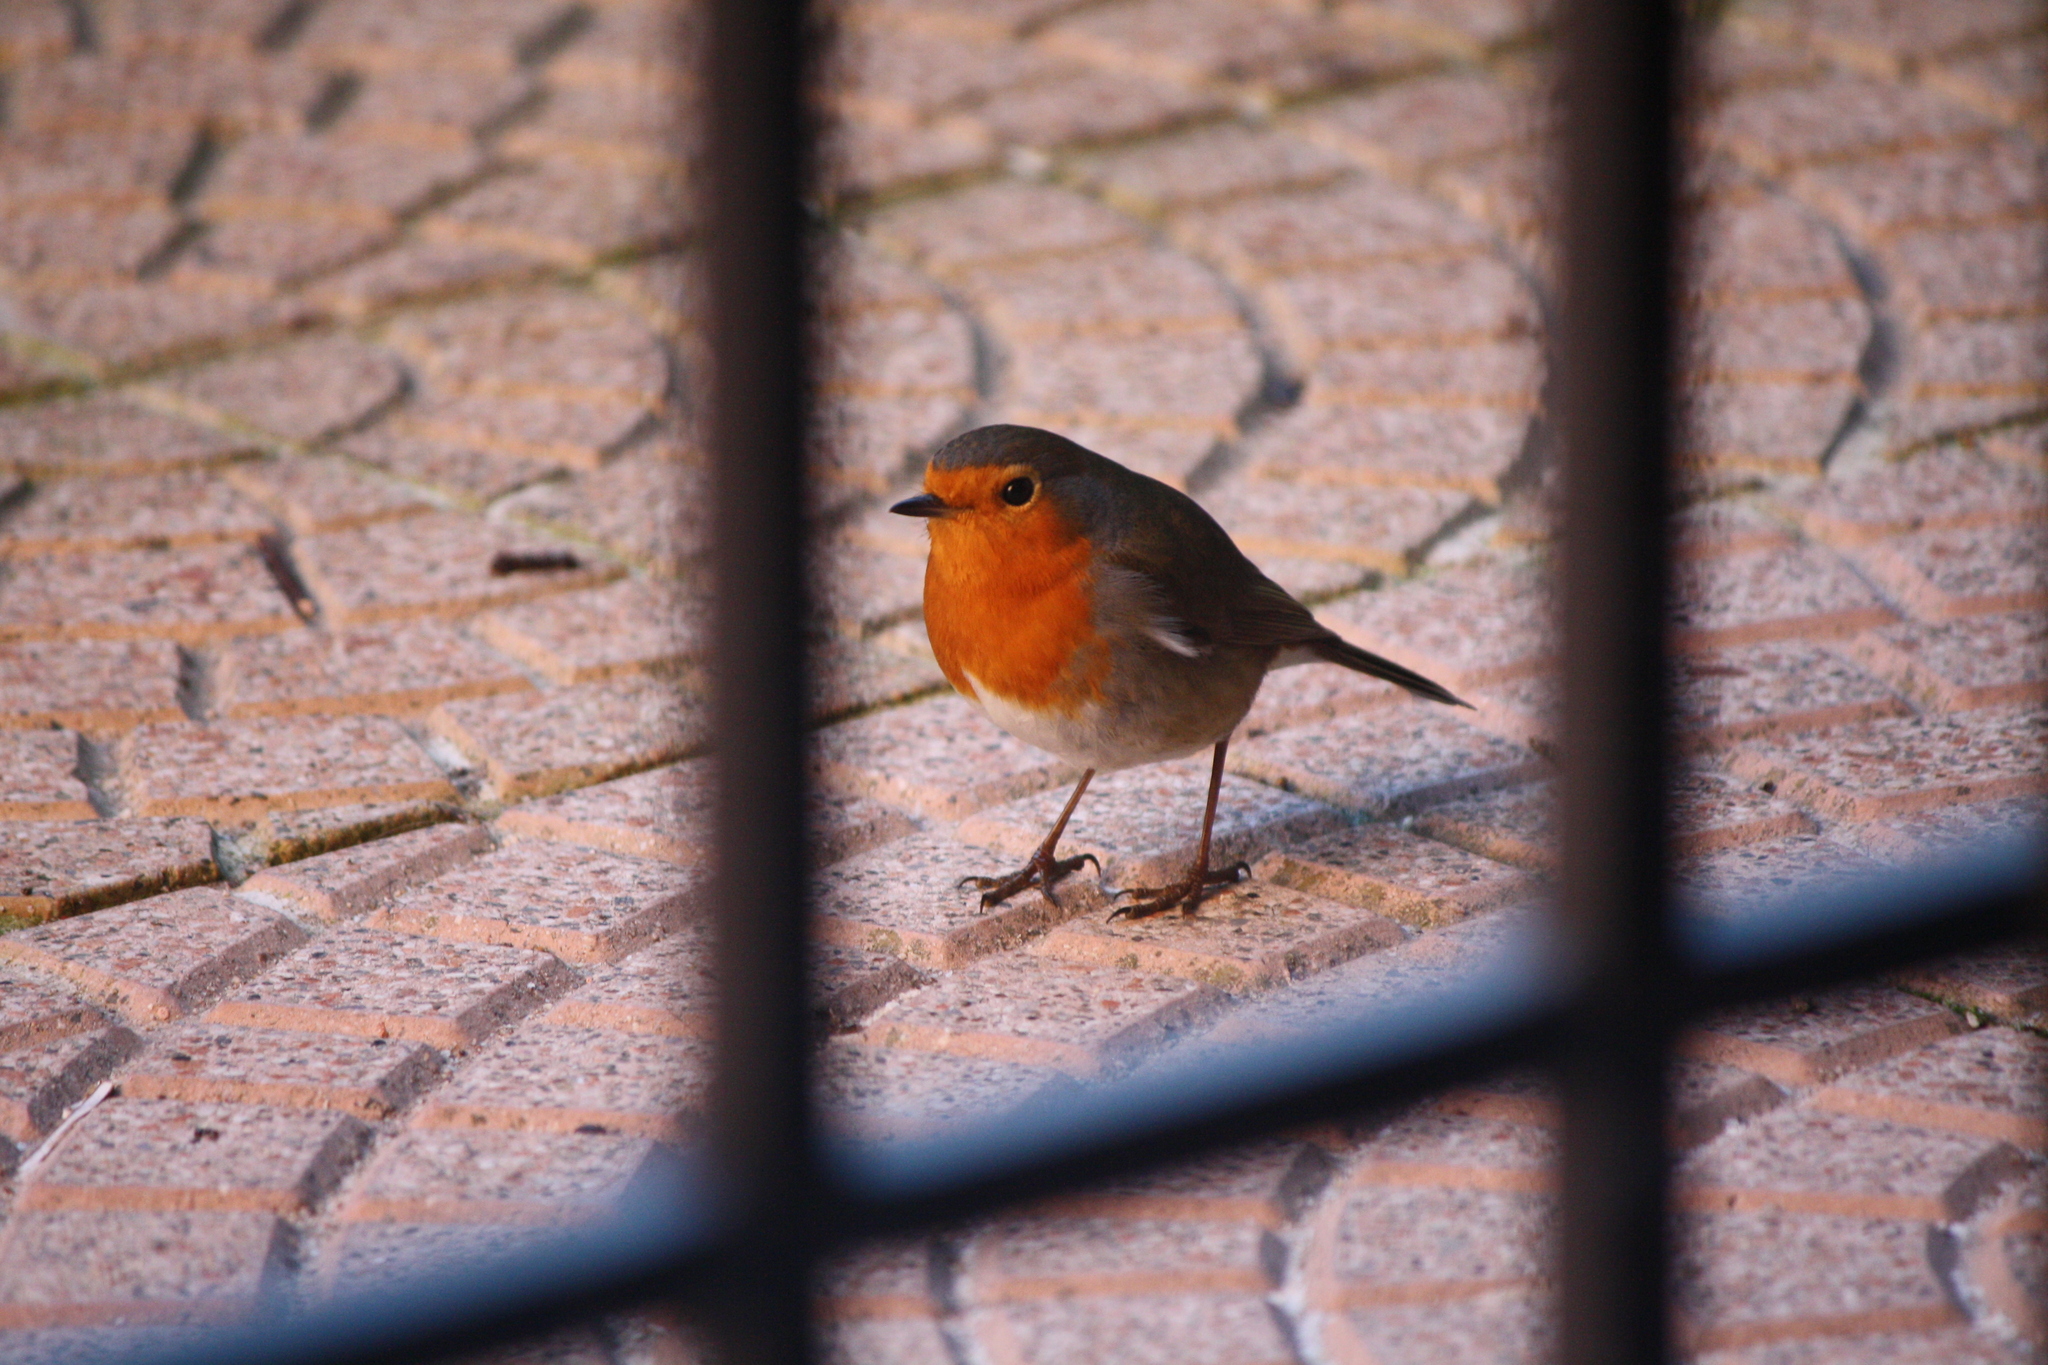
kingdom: Animalia
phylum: Chordata
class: Aves
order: Passeriformes
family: Muscicapidae
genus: Erithacus
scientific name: Erithacus rubecula
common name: European robin
